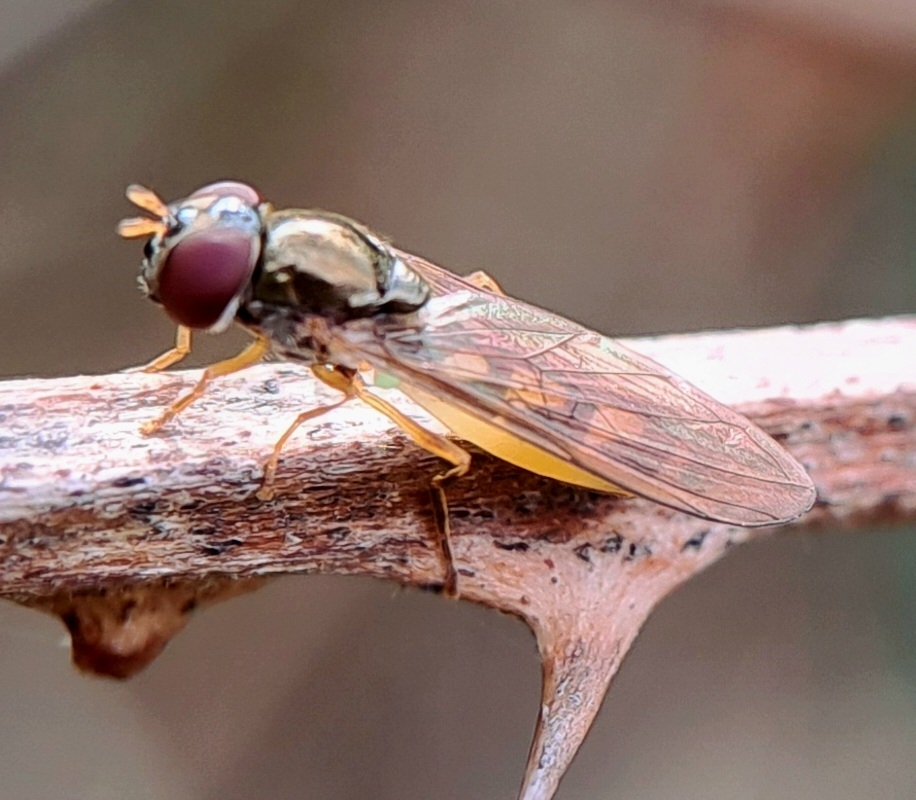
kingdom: Animalia
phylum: Arthropoda
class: Insecta
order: Diptera
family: Syrphidae
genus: Melanostoma
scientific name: Melanostoma scalare
